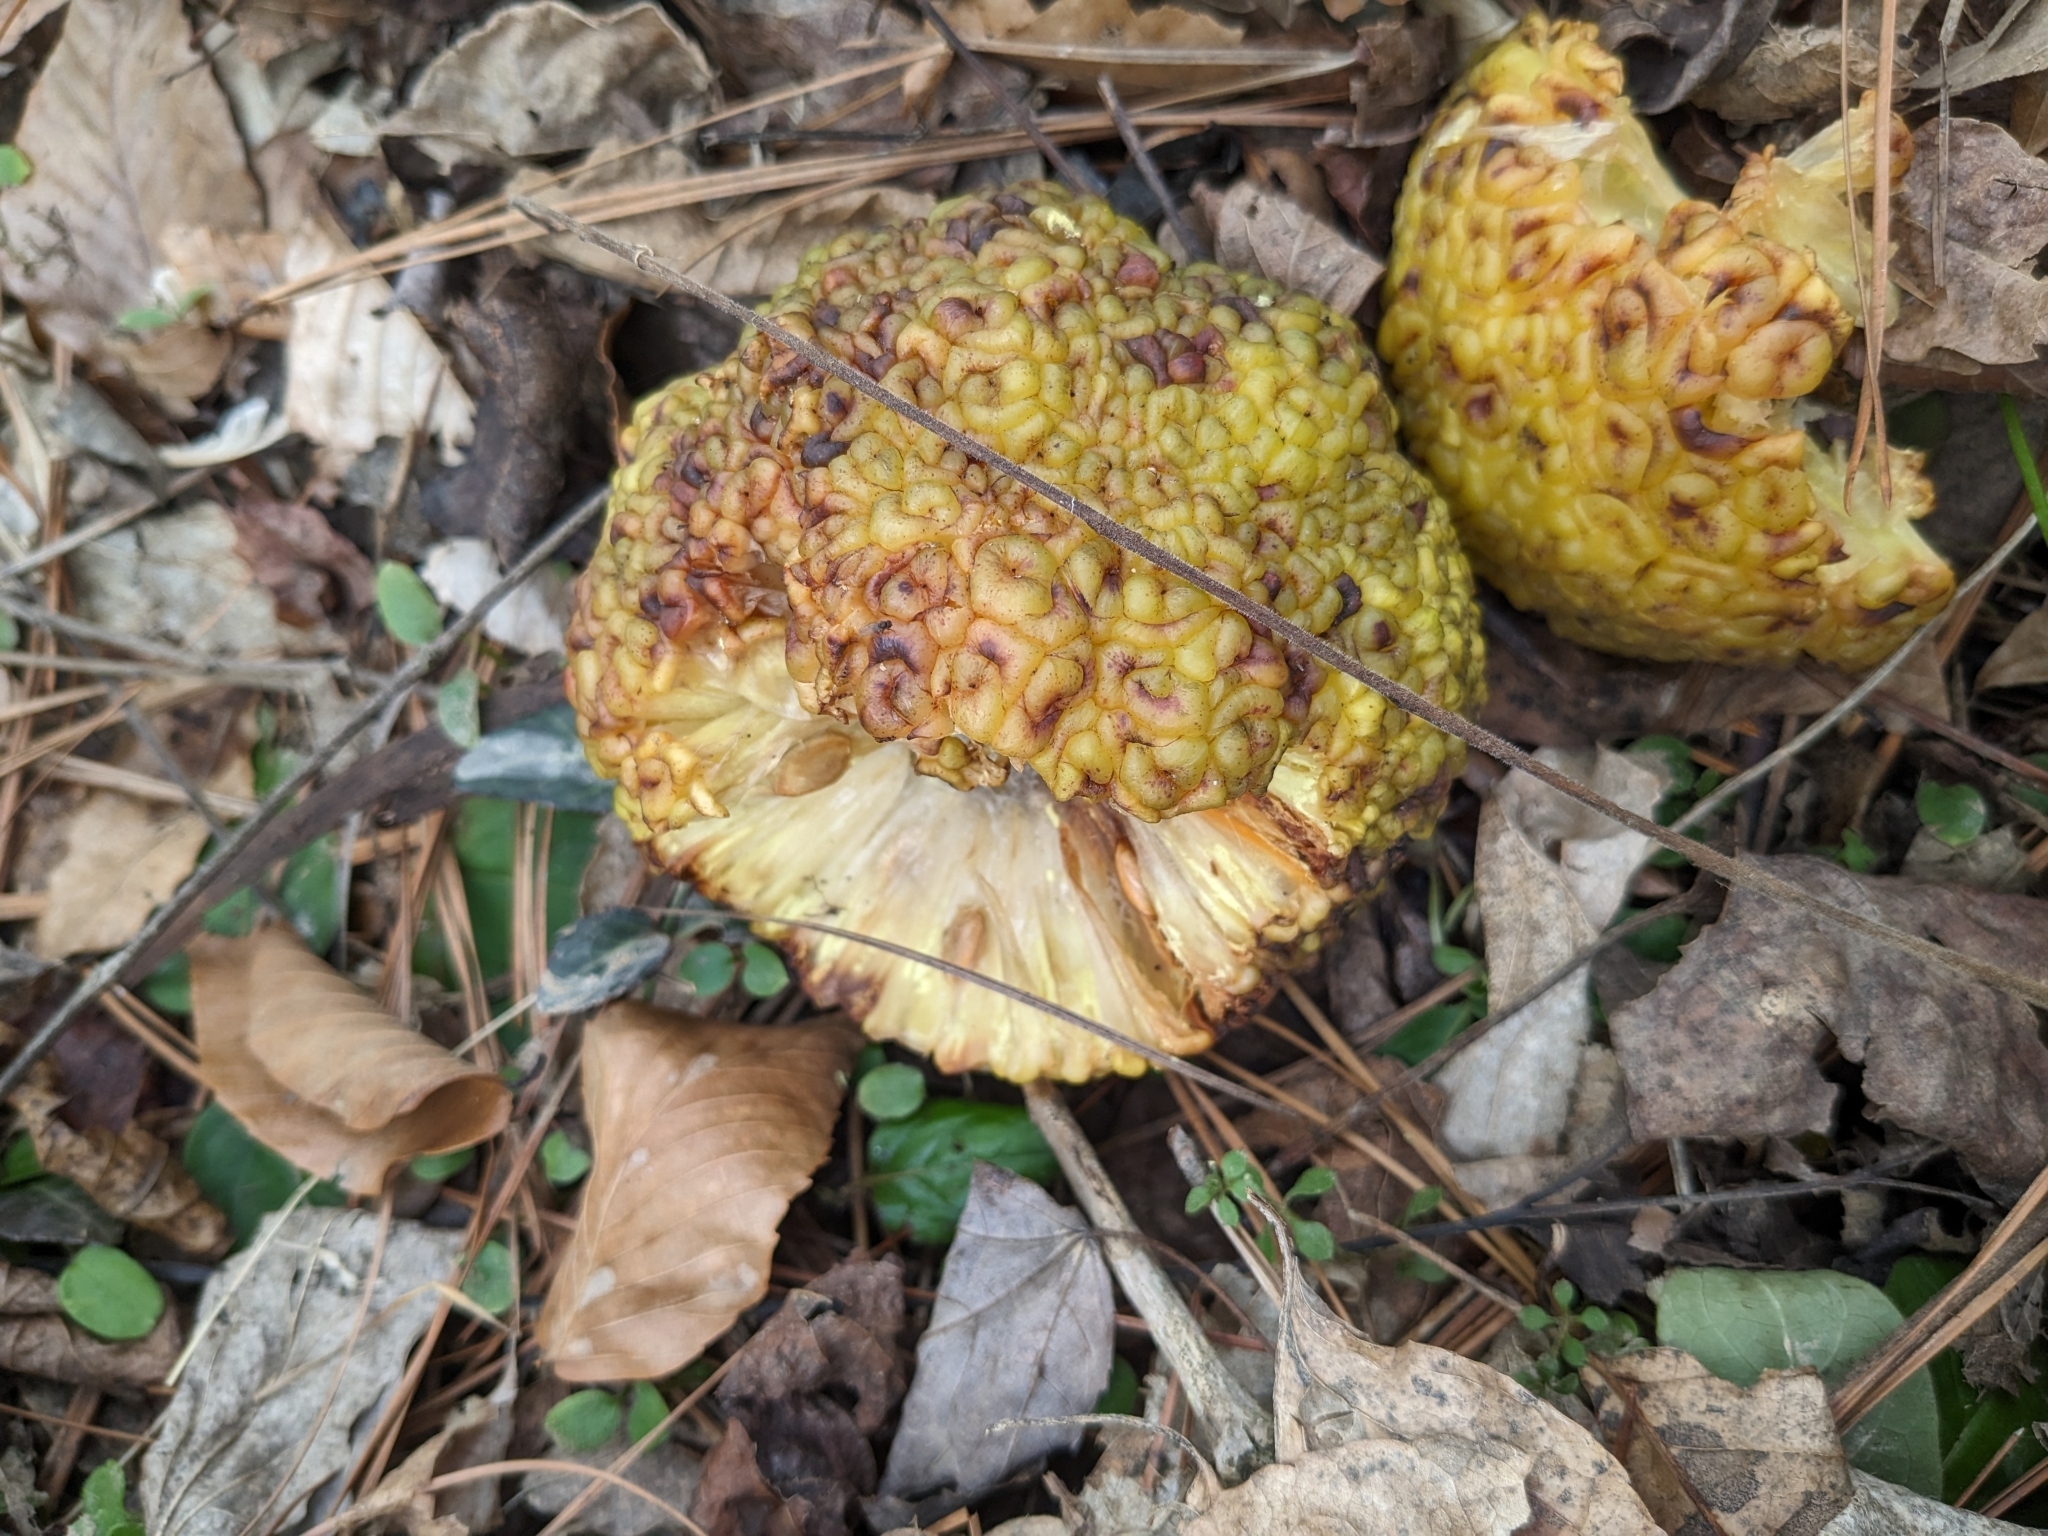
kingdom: Plantae
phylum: Tracheophyta
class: Magnoliopsida
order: Rosales
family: Moraceae
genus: Maclura
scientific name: Maclura pomifera
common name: Osage-orange
